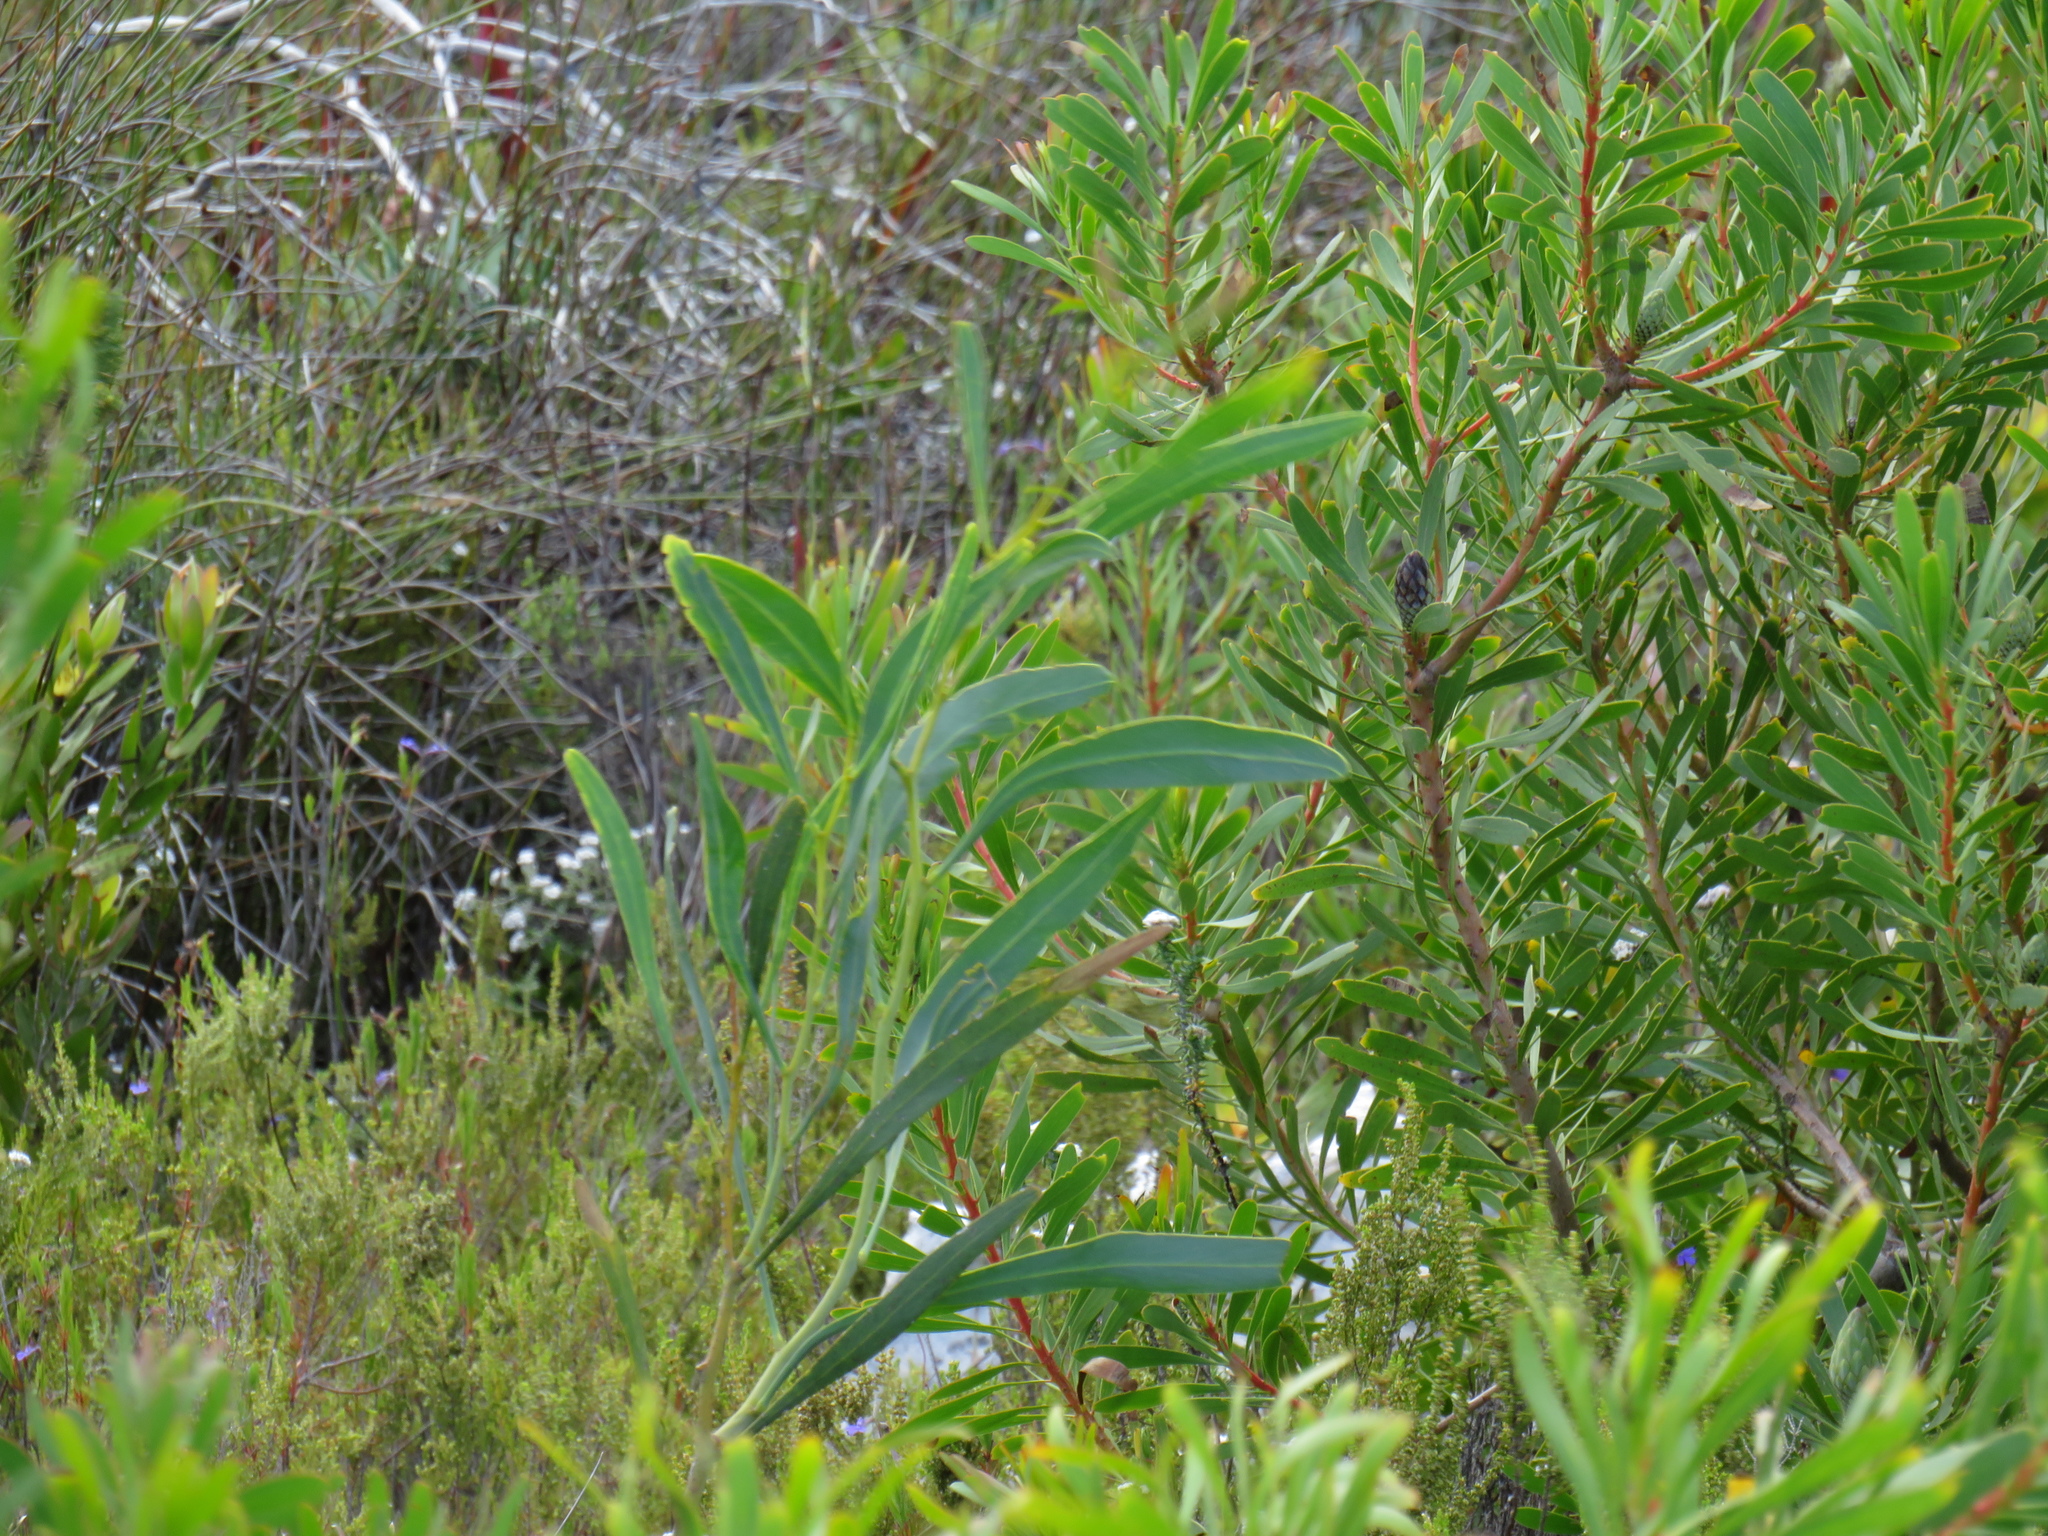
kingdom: Plantae
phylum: Tracheophyta
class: Magnoliopsida
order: Fabales
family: Fabaceae
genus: Acacia
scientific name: Acacia saligna
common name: Orange wattle
